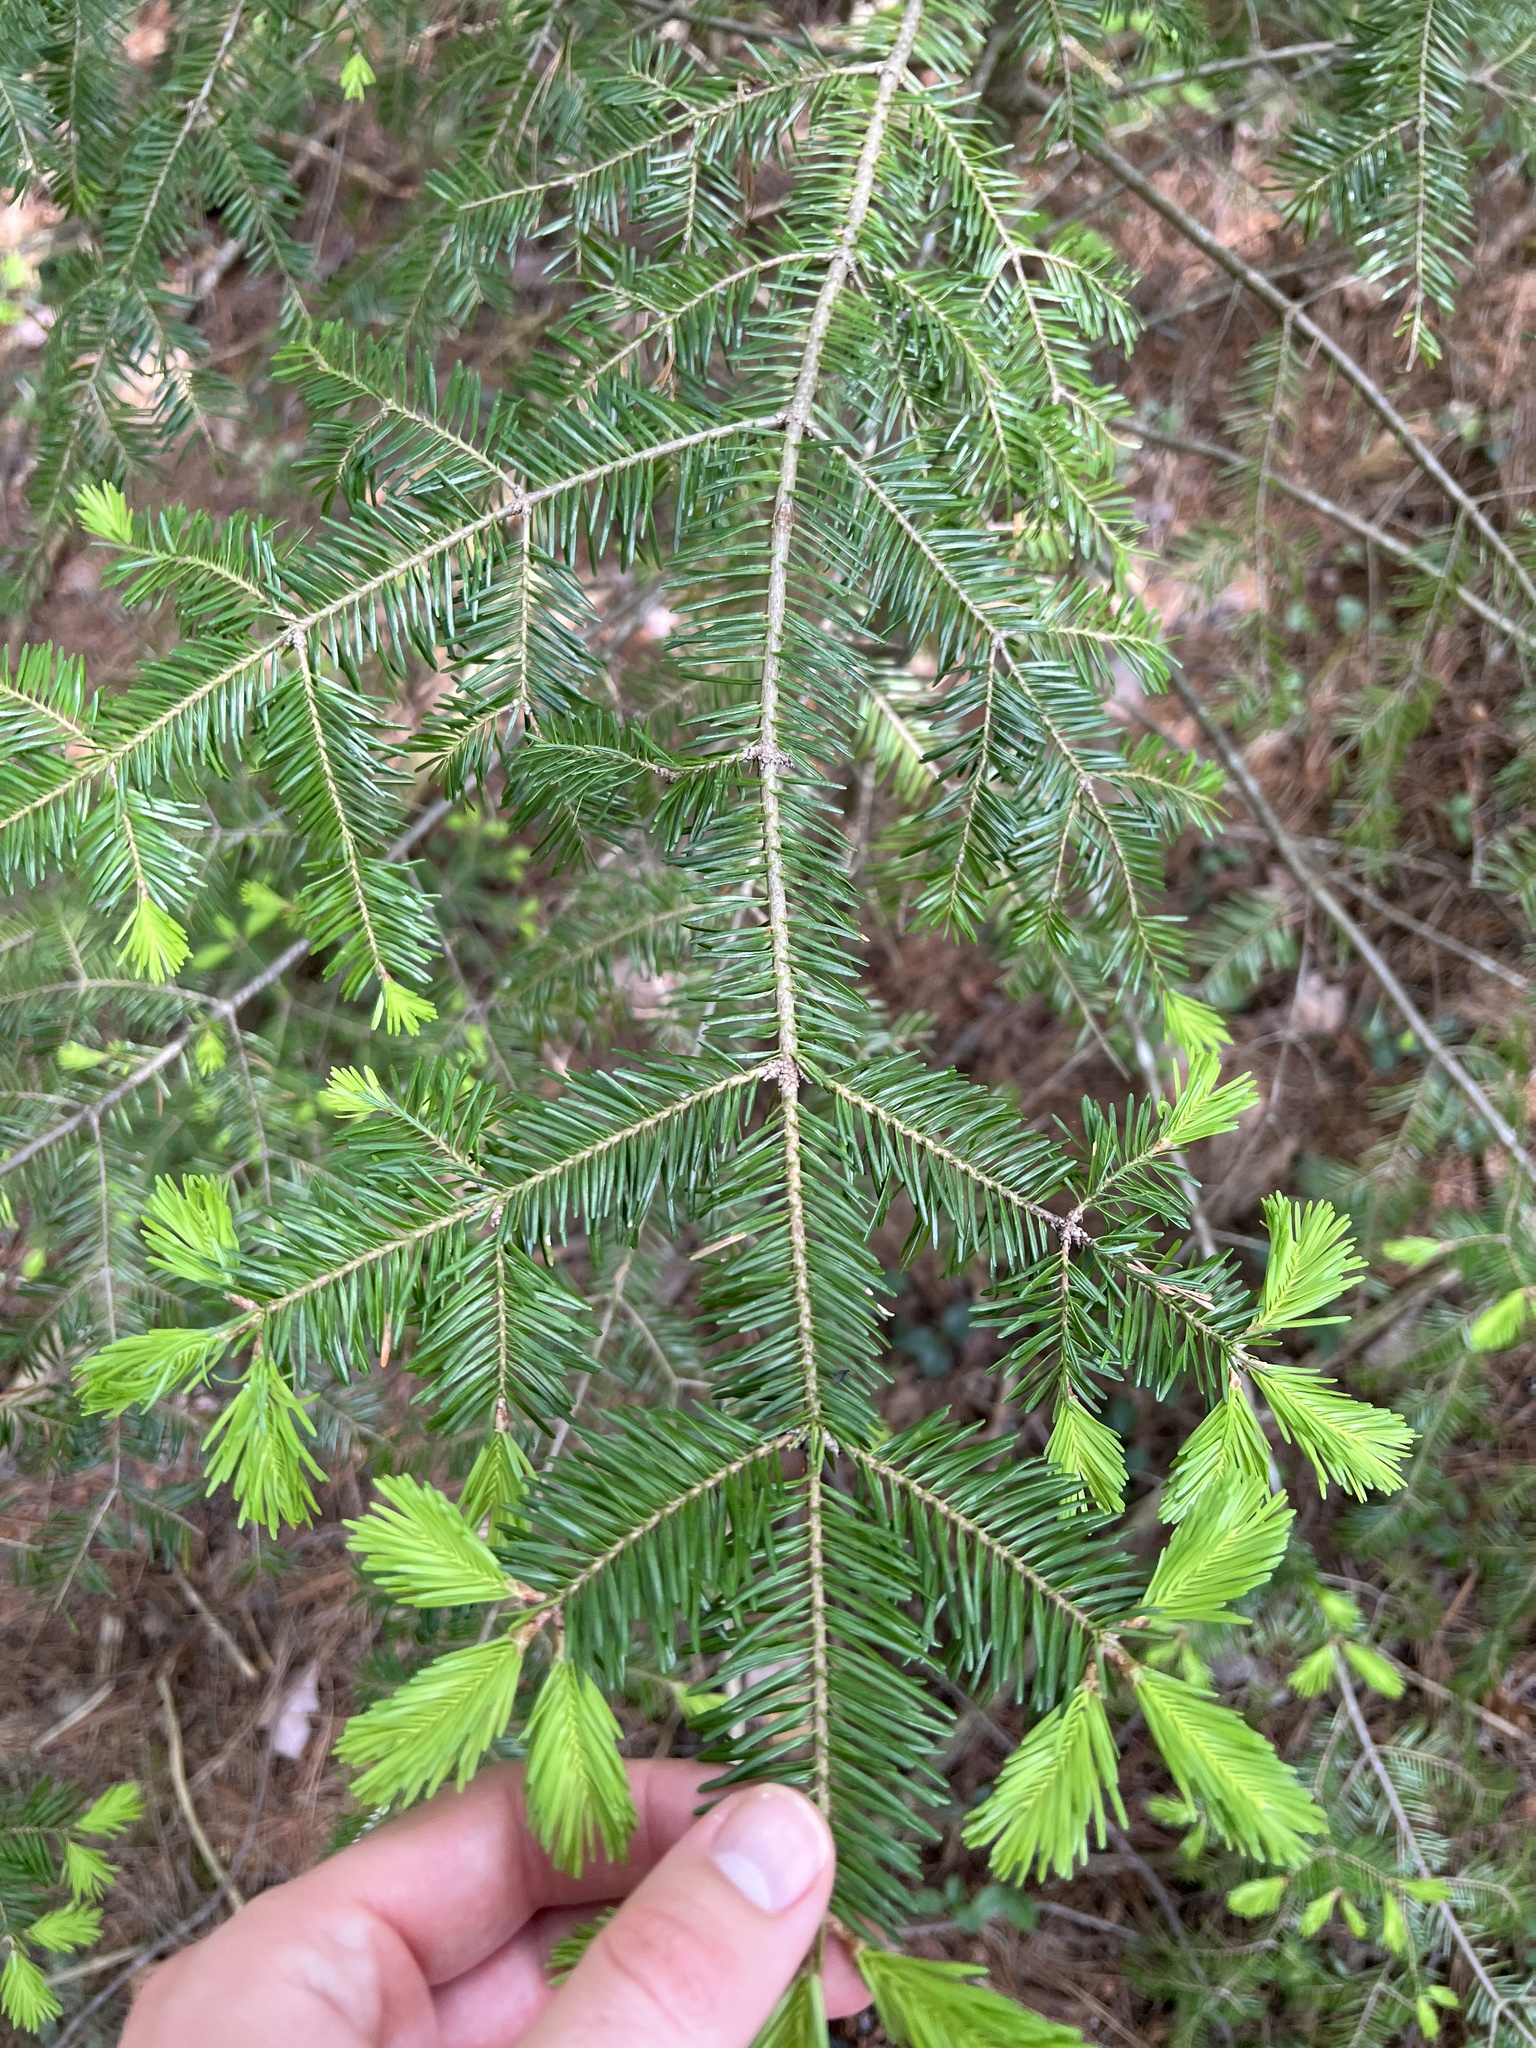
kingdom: Plantae
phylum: Tracheophyta
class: Pinopsida
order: Pinales
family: Pinaceae
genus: Abies
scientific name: Abies balsamea
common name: Balsam fir
